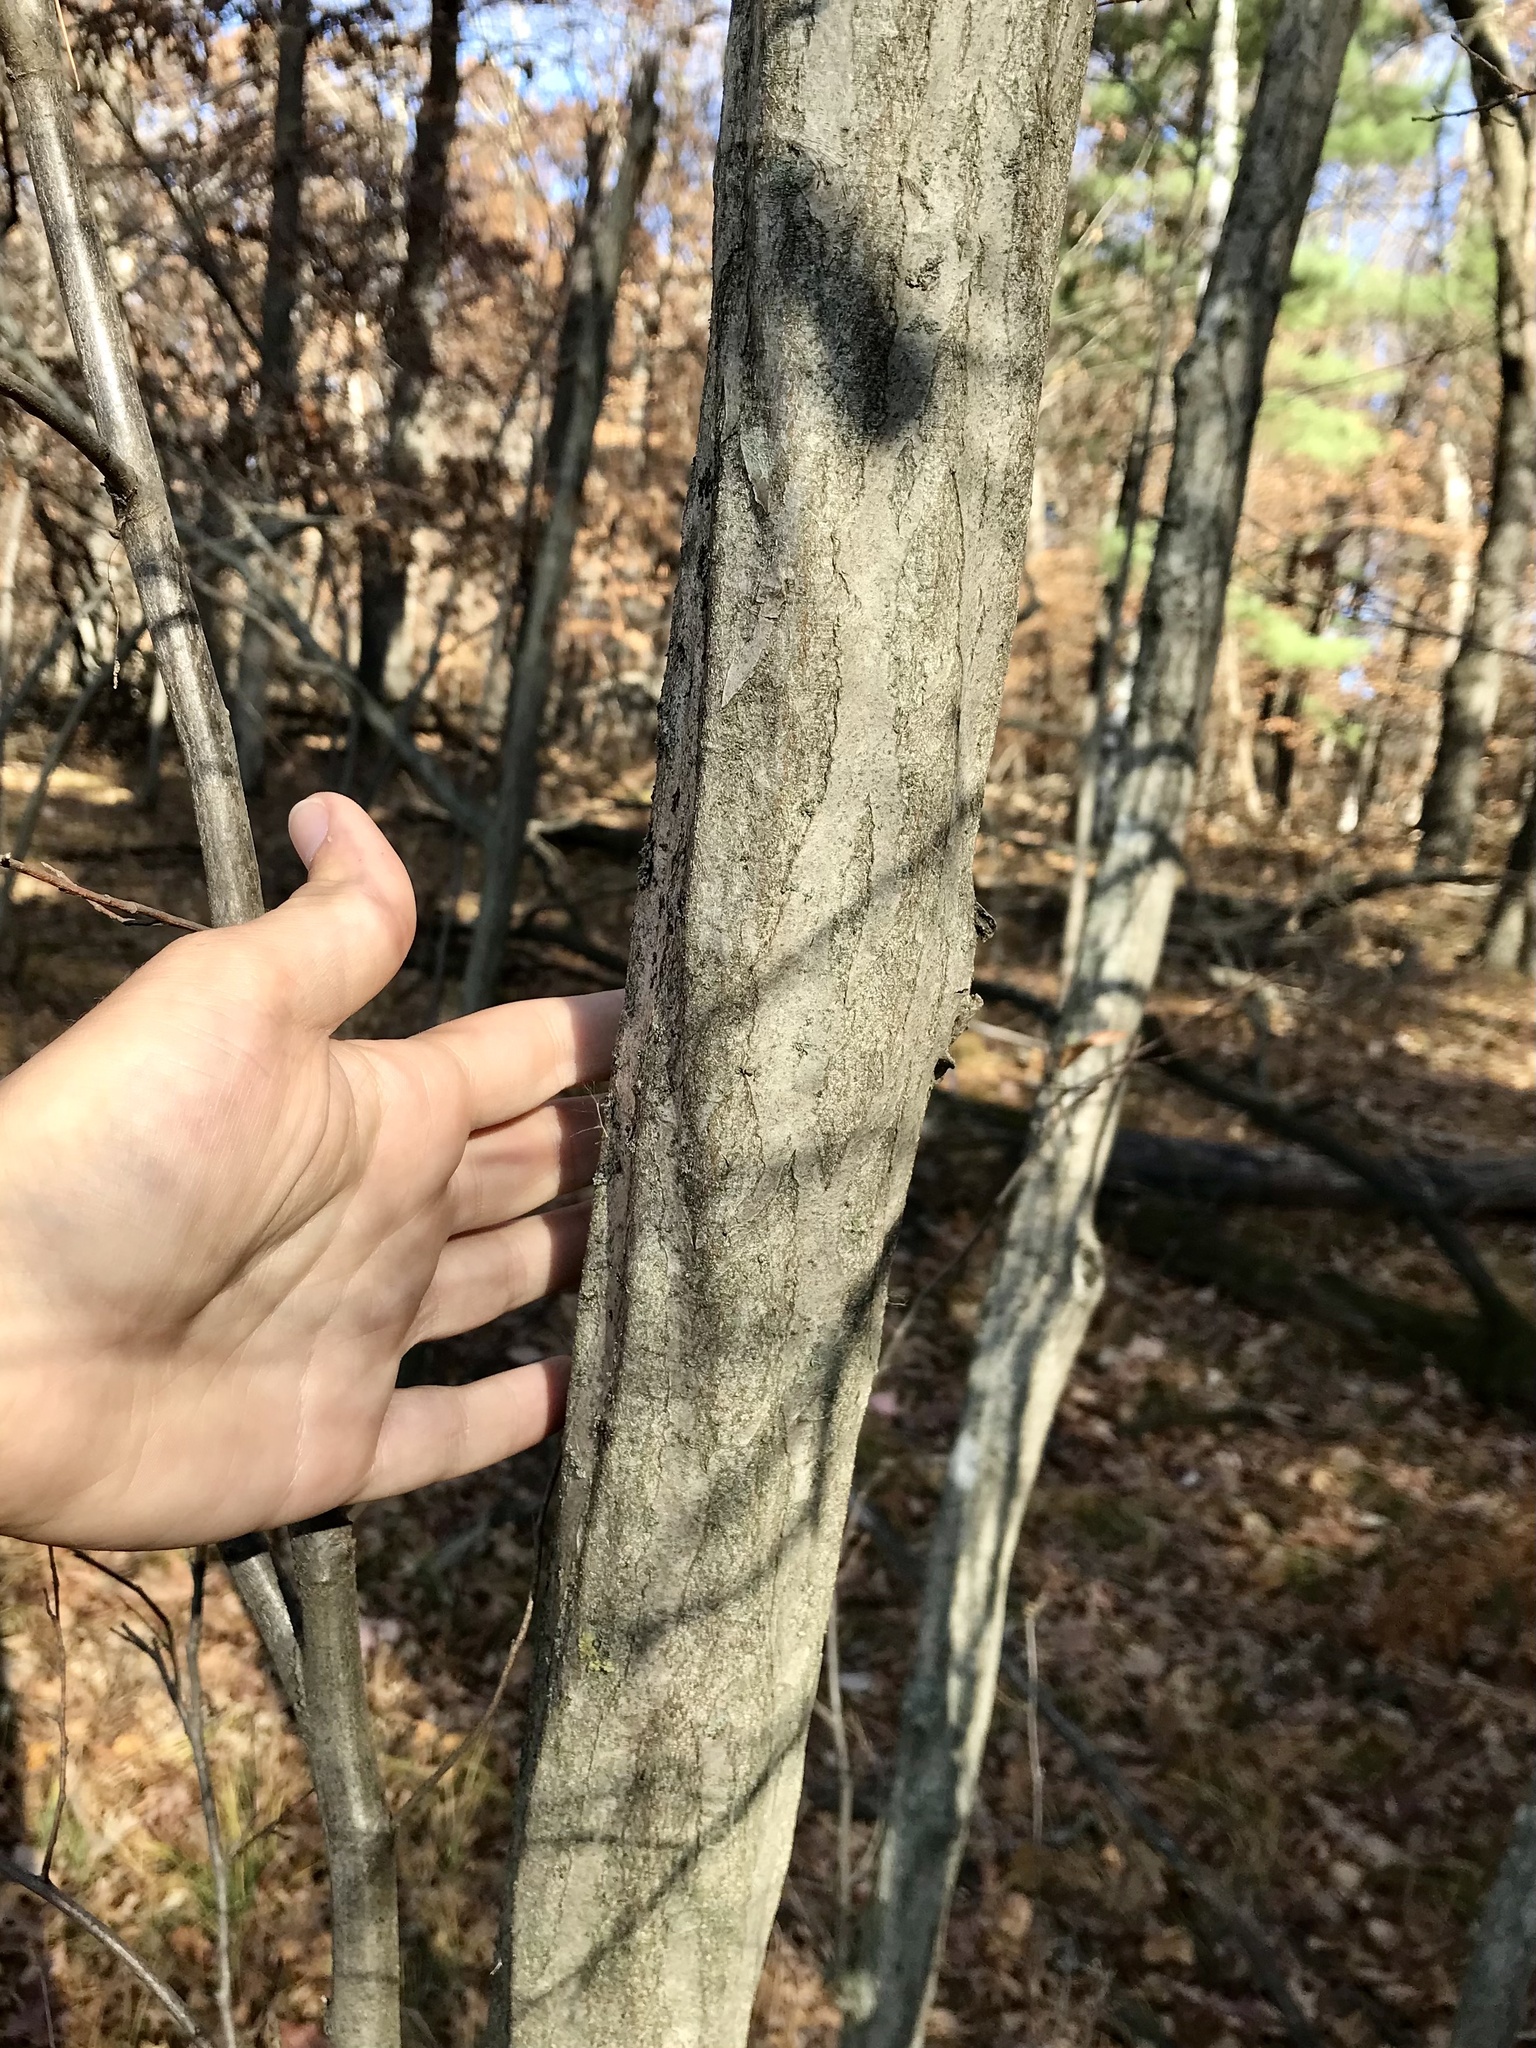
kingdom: Plantae
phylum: Tracheophyta
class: Magnoliopsida
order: Fagales
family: Betulaceae
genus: Carpinus
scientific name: Carpinus caroliniana
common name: American hornbeam
